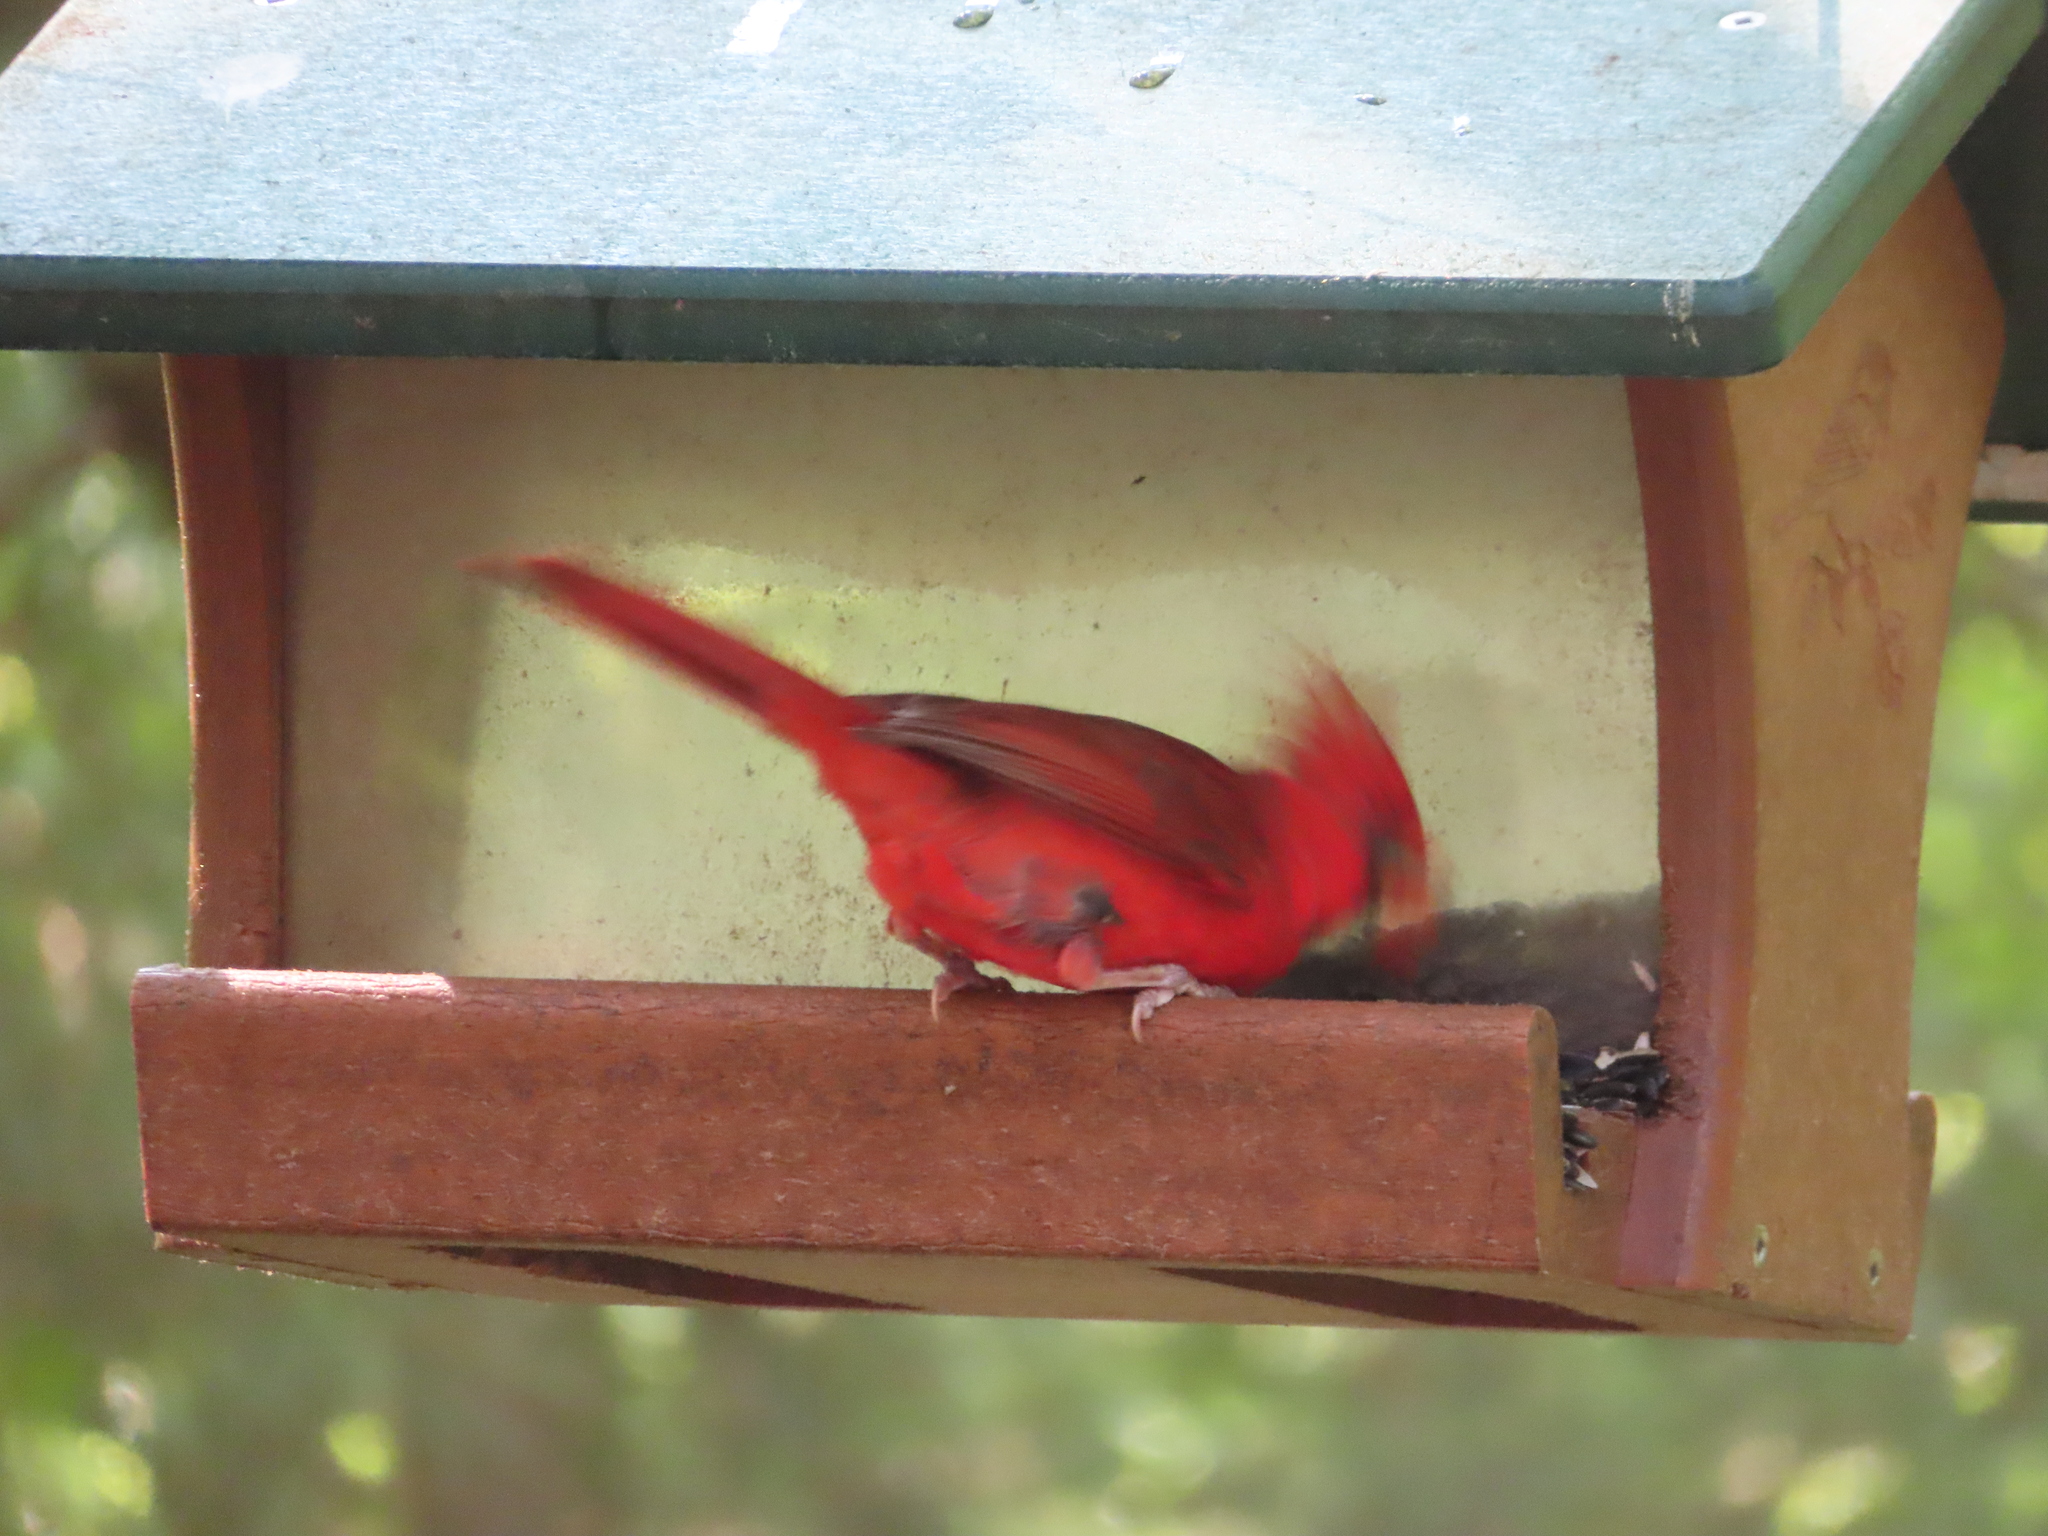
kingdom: Animalia
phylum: Chordata
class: Aves
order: Passeriformes
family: Cardinalidae
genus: Cardinalis
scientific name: Cardinalis cardinalis
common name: Northern cardinal
